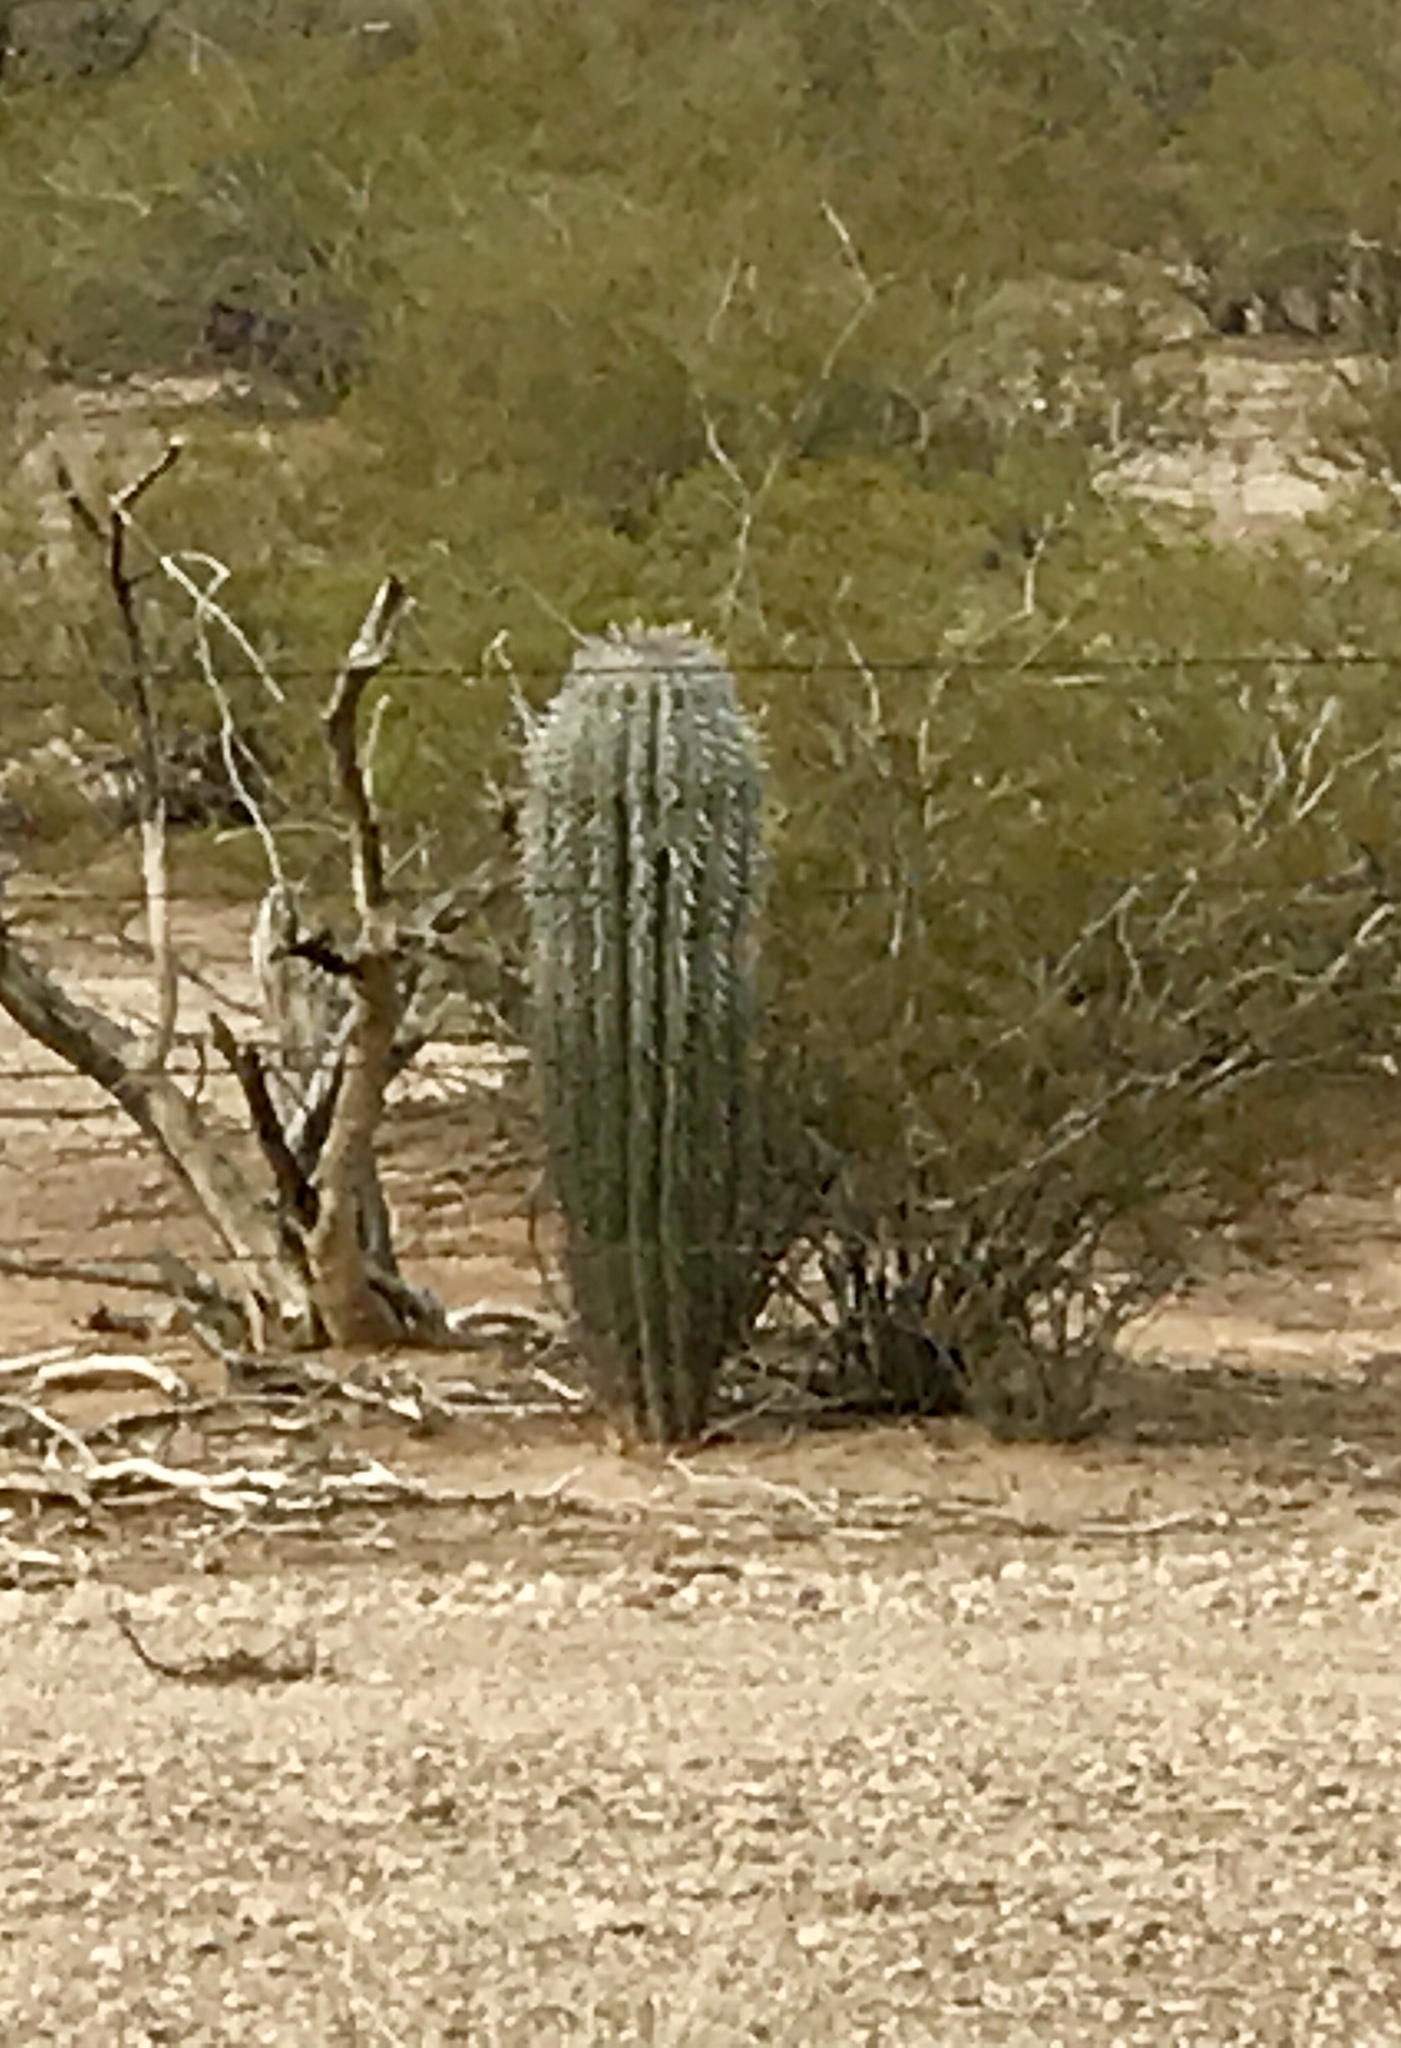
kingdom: Plantae
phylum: Tracheophyta
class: Magnoliopsida
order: Caryophyllales
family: Cactaceae
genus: Carnegiea
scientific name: Carnegiea gigantea
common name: Saguaro
